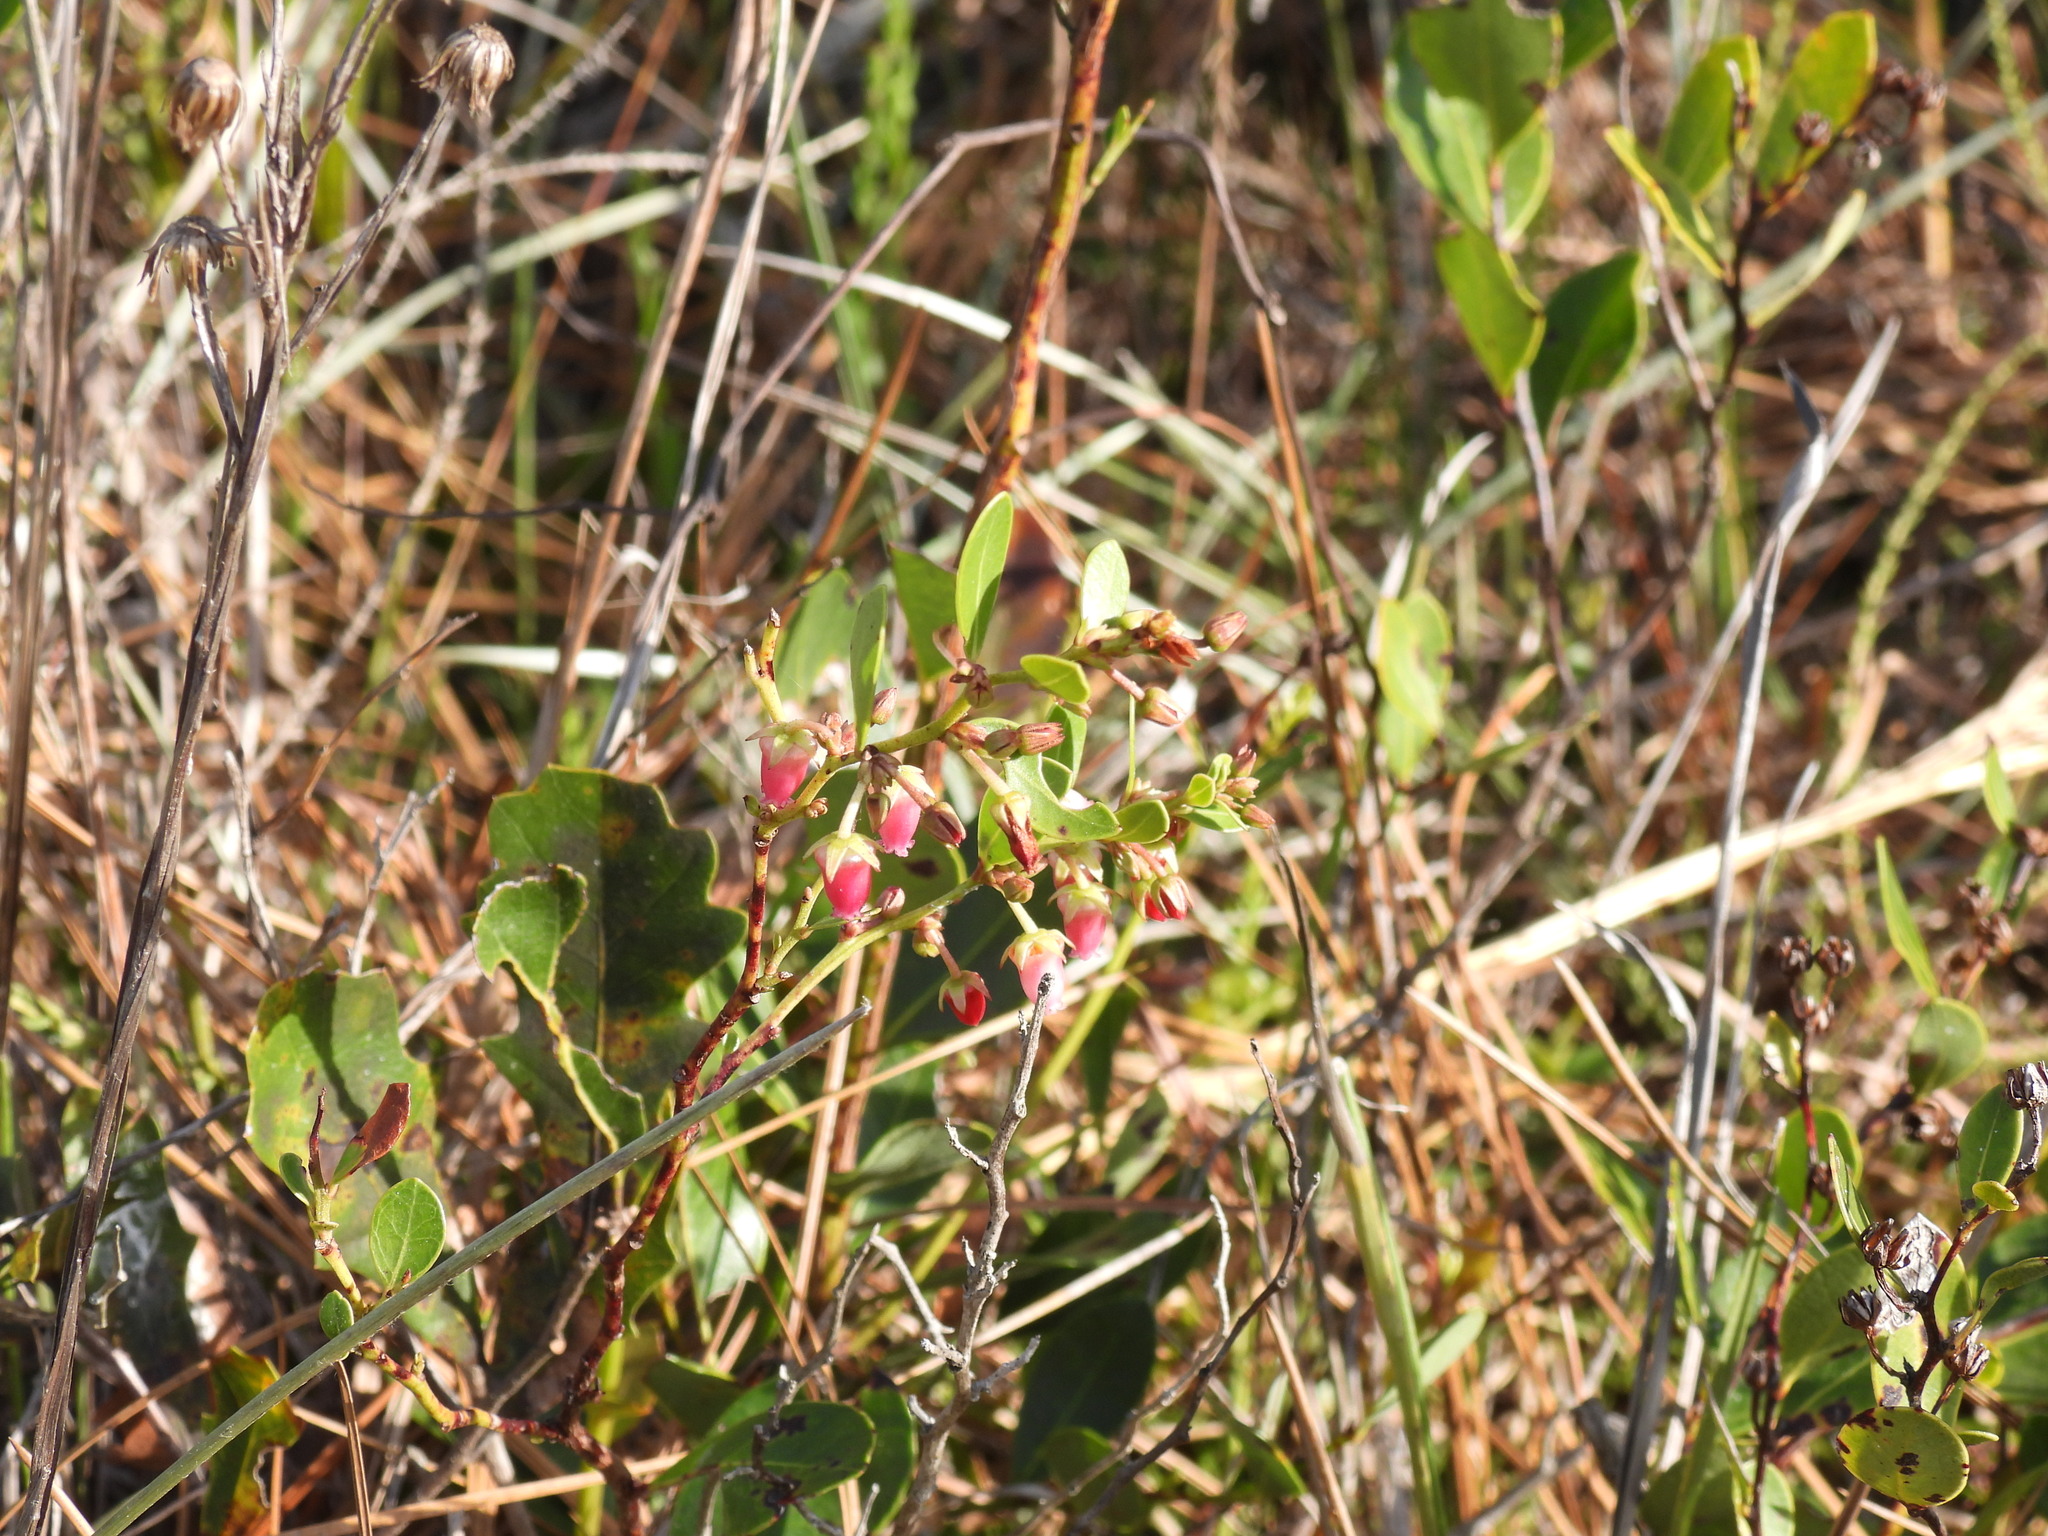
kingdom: Plantae
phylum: Tracheophyta
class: Magnoliopsida
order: Ericales
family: Ericaceae
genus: Lyonia
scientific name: Lyonia lucida
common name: Fetterbush
